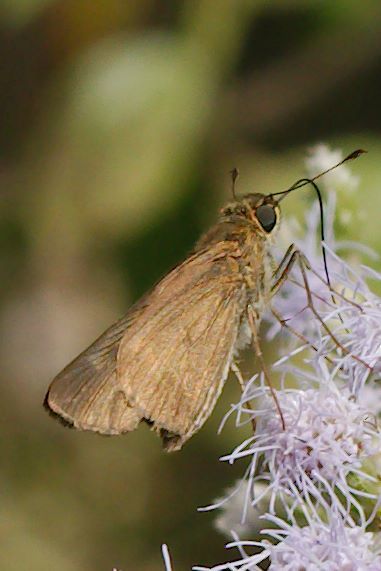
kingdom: Animalia
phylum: Arthropoda
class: Insecta
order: Lepidoptera
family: Hesperiidae
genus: Panoquina
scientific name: Panoquina ocola
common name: Ocola skipper
